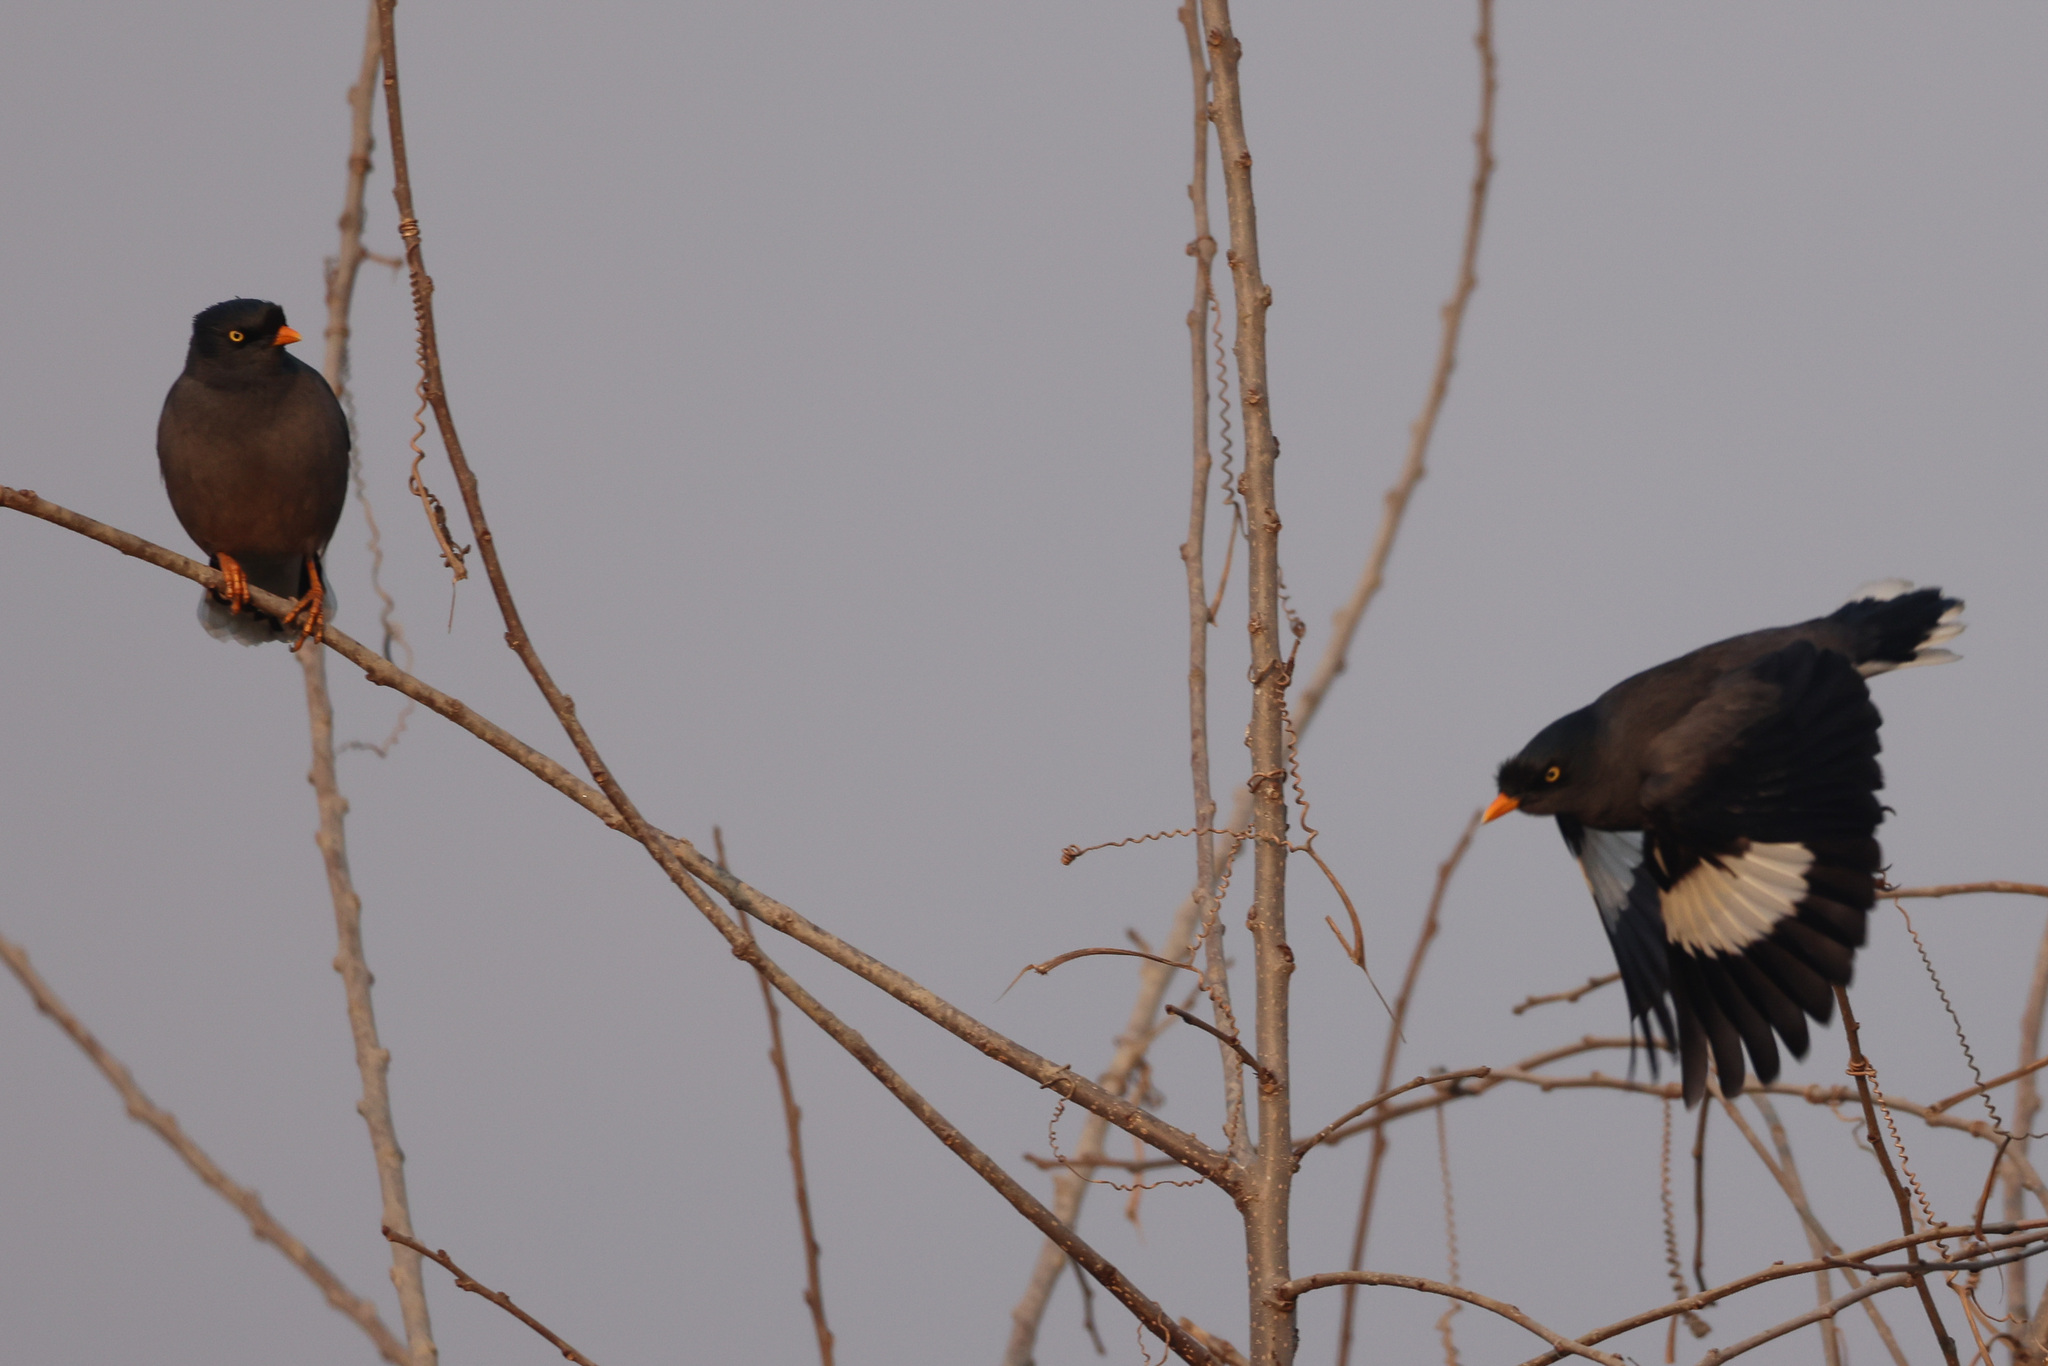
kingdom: Animalia
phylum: Chordata
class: Aves
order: Passeriformes
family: Sturnidae
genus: Acridotheres
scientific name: Acridotheres fuscus
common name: Jungle myna
